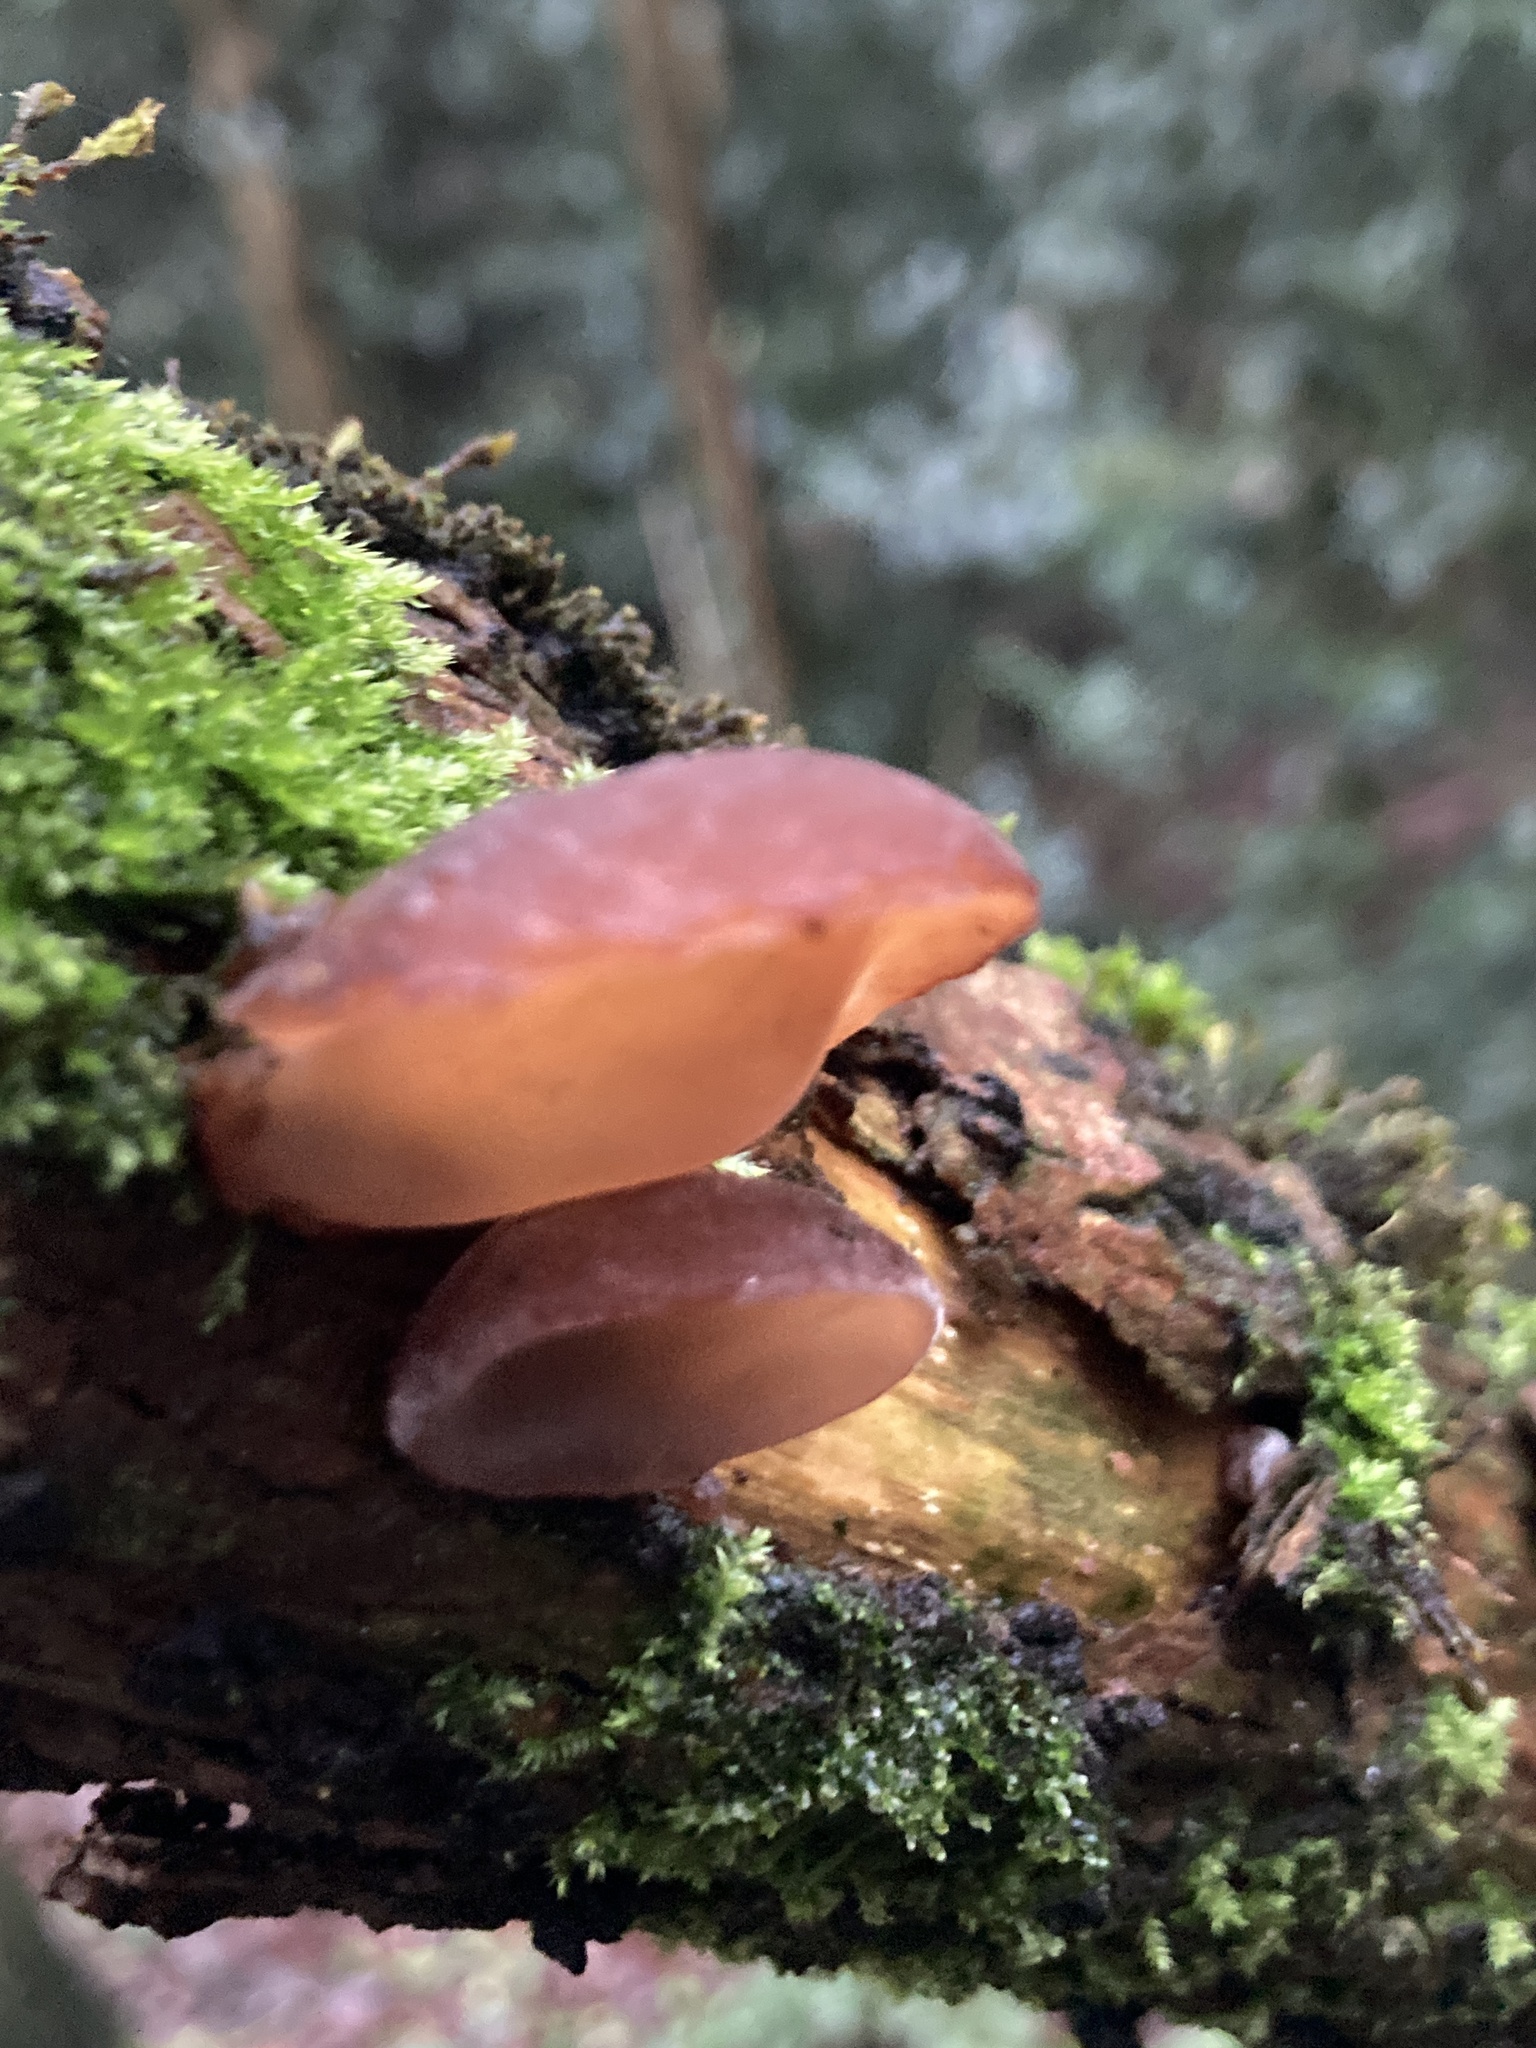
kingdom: Fungi
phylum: Basidiomycota
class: Agaricomycetes
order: Auriculariales
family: Auriculariaceae
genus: Auricularia
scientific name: Auricularia auricula-judae
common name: Jelly ear
